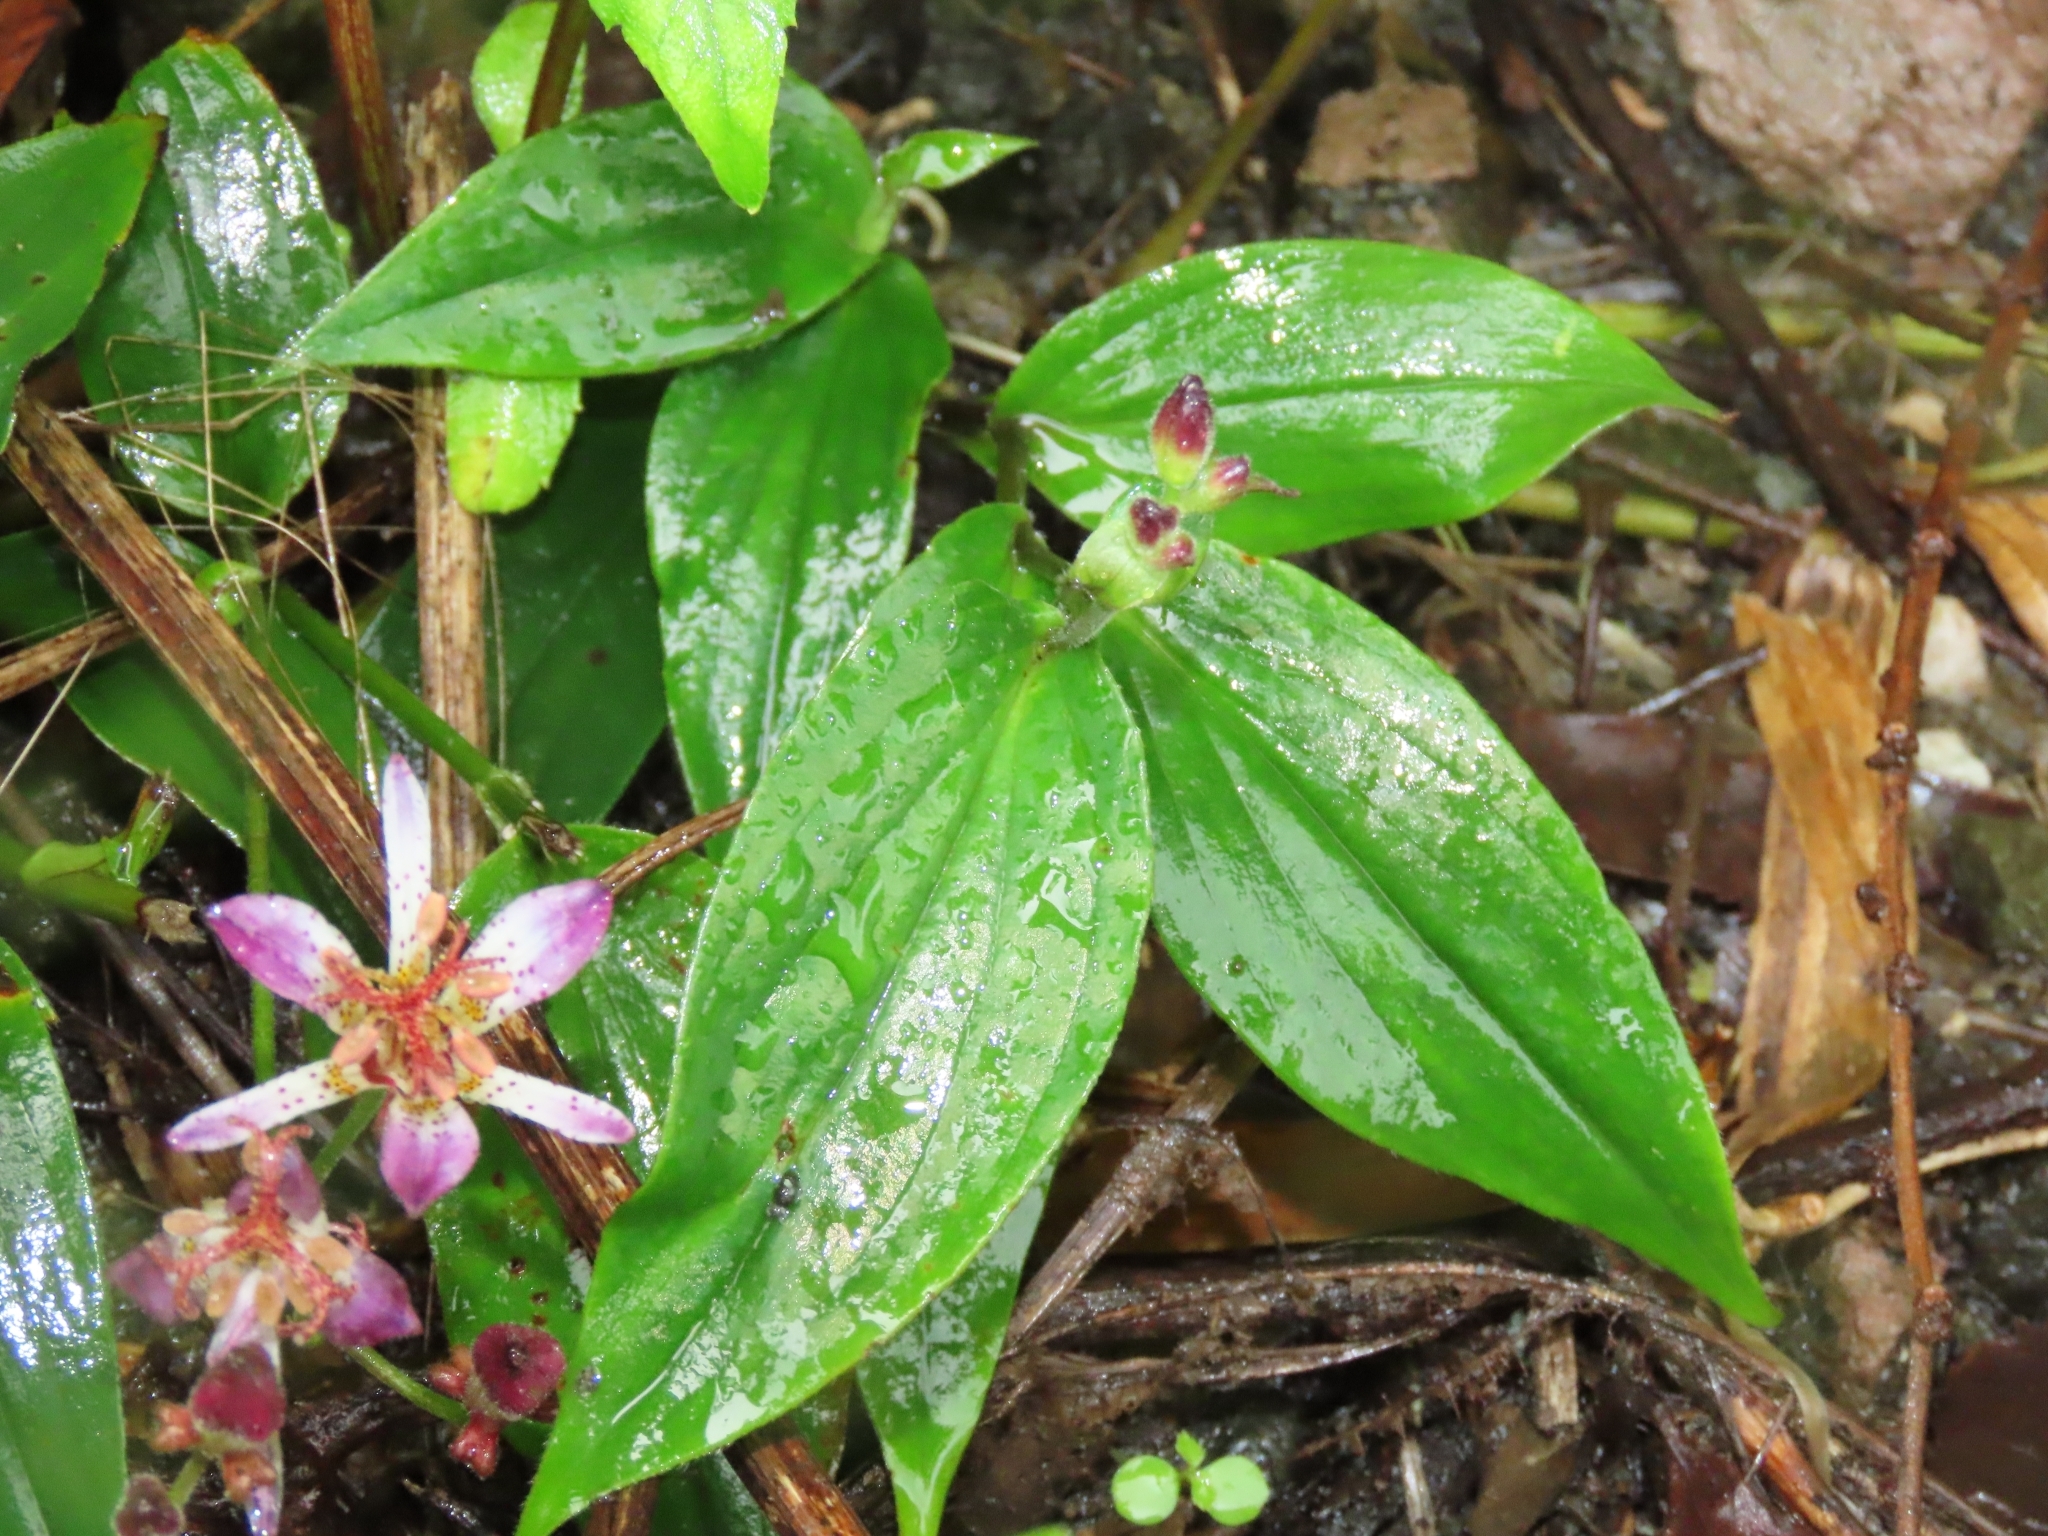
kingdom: Plantae
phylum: Tracheophyta
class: Liliopsida
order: Liliales
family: Liliaceae
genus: Tricyrtis
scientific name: Tricyrtis formosana
